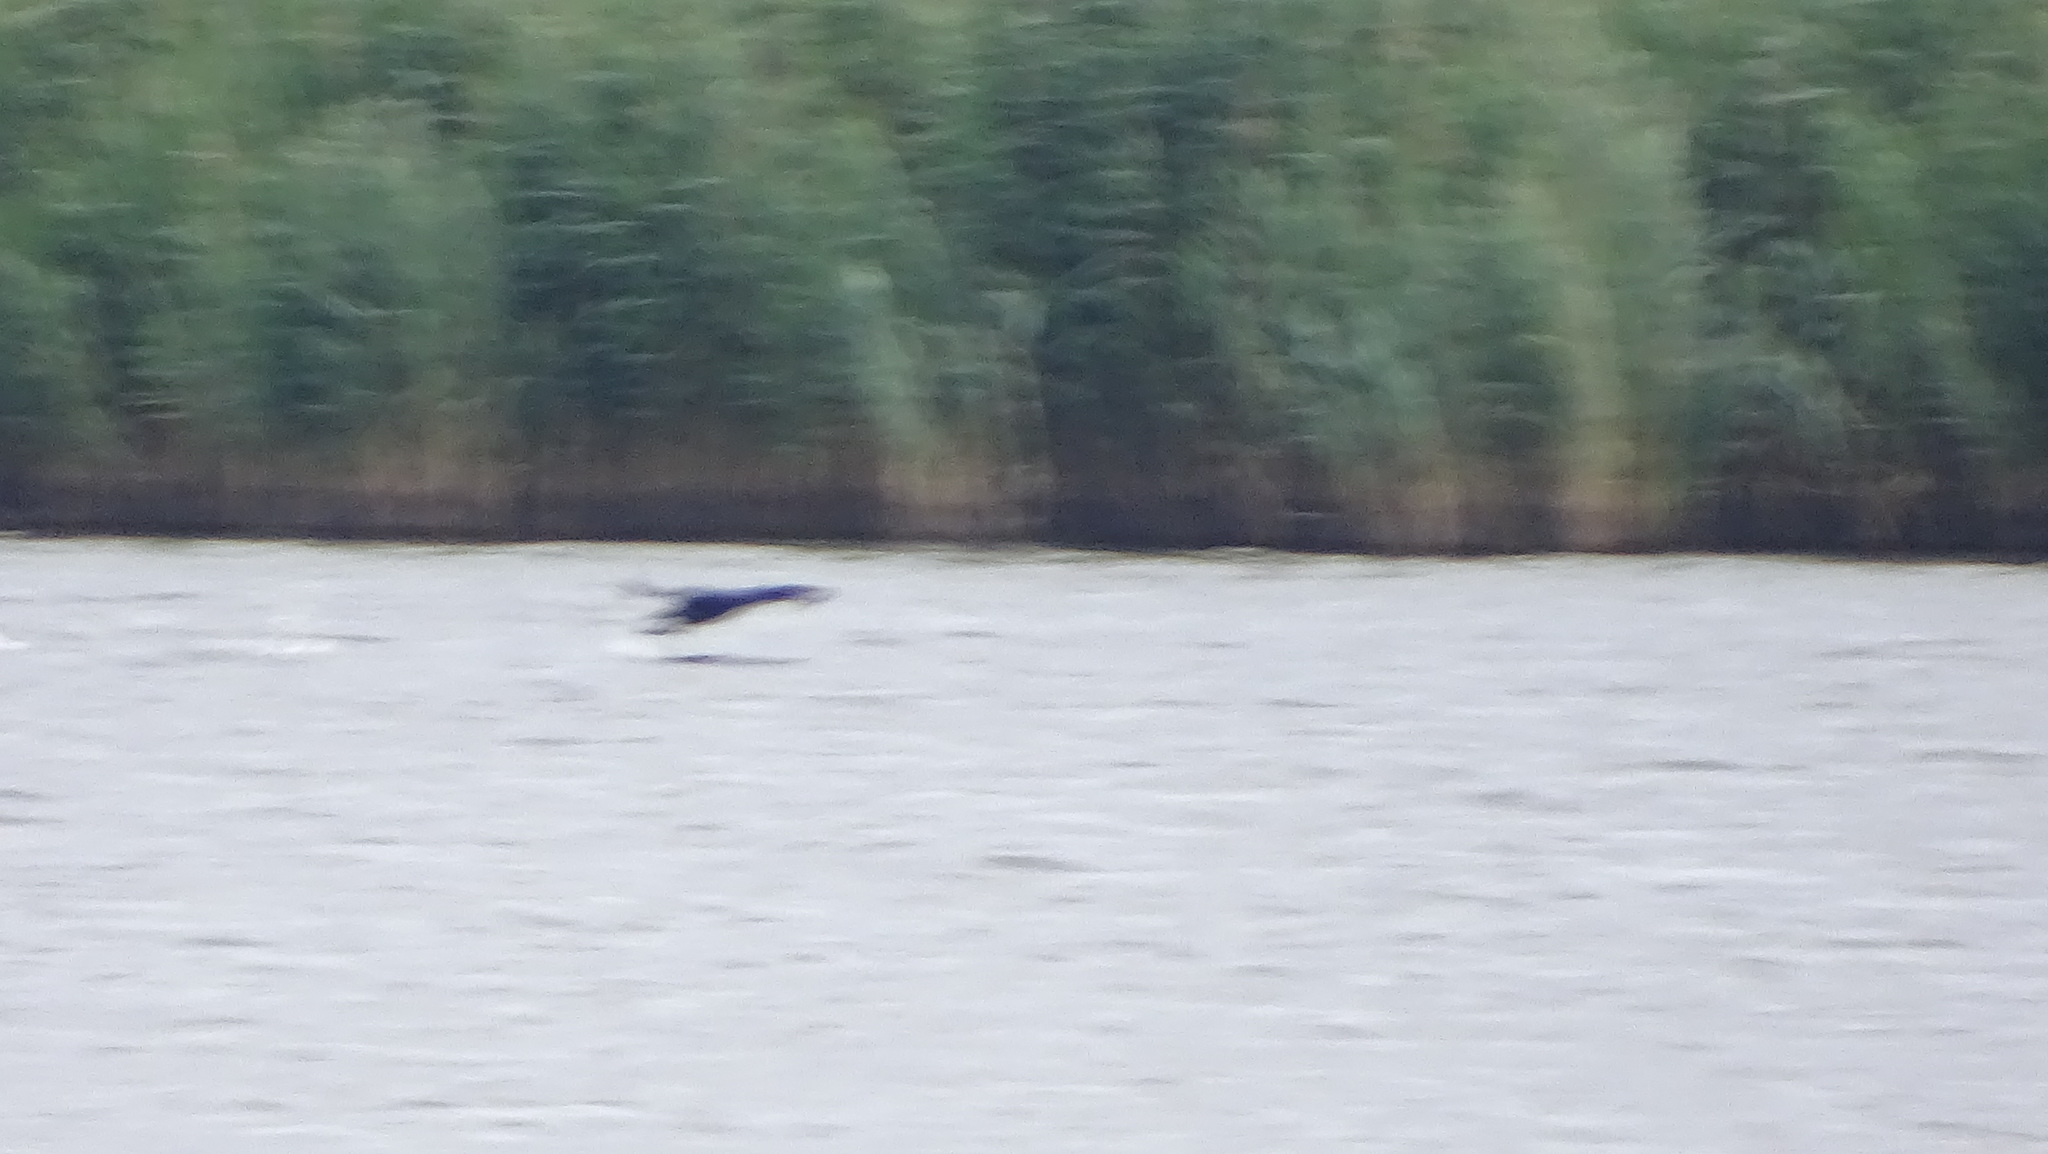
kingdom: Animalia
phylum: Chordata
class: Aves
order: Suliformes
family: Phalacrocoracidae
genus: Phalacrocorax
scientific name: Phalacrocorax carbo
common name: Great cormorant
